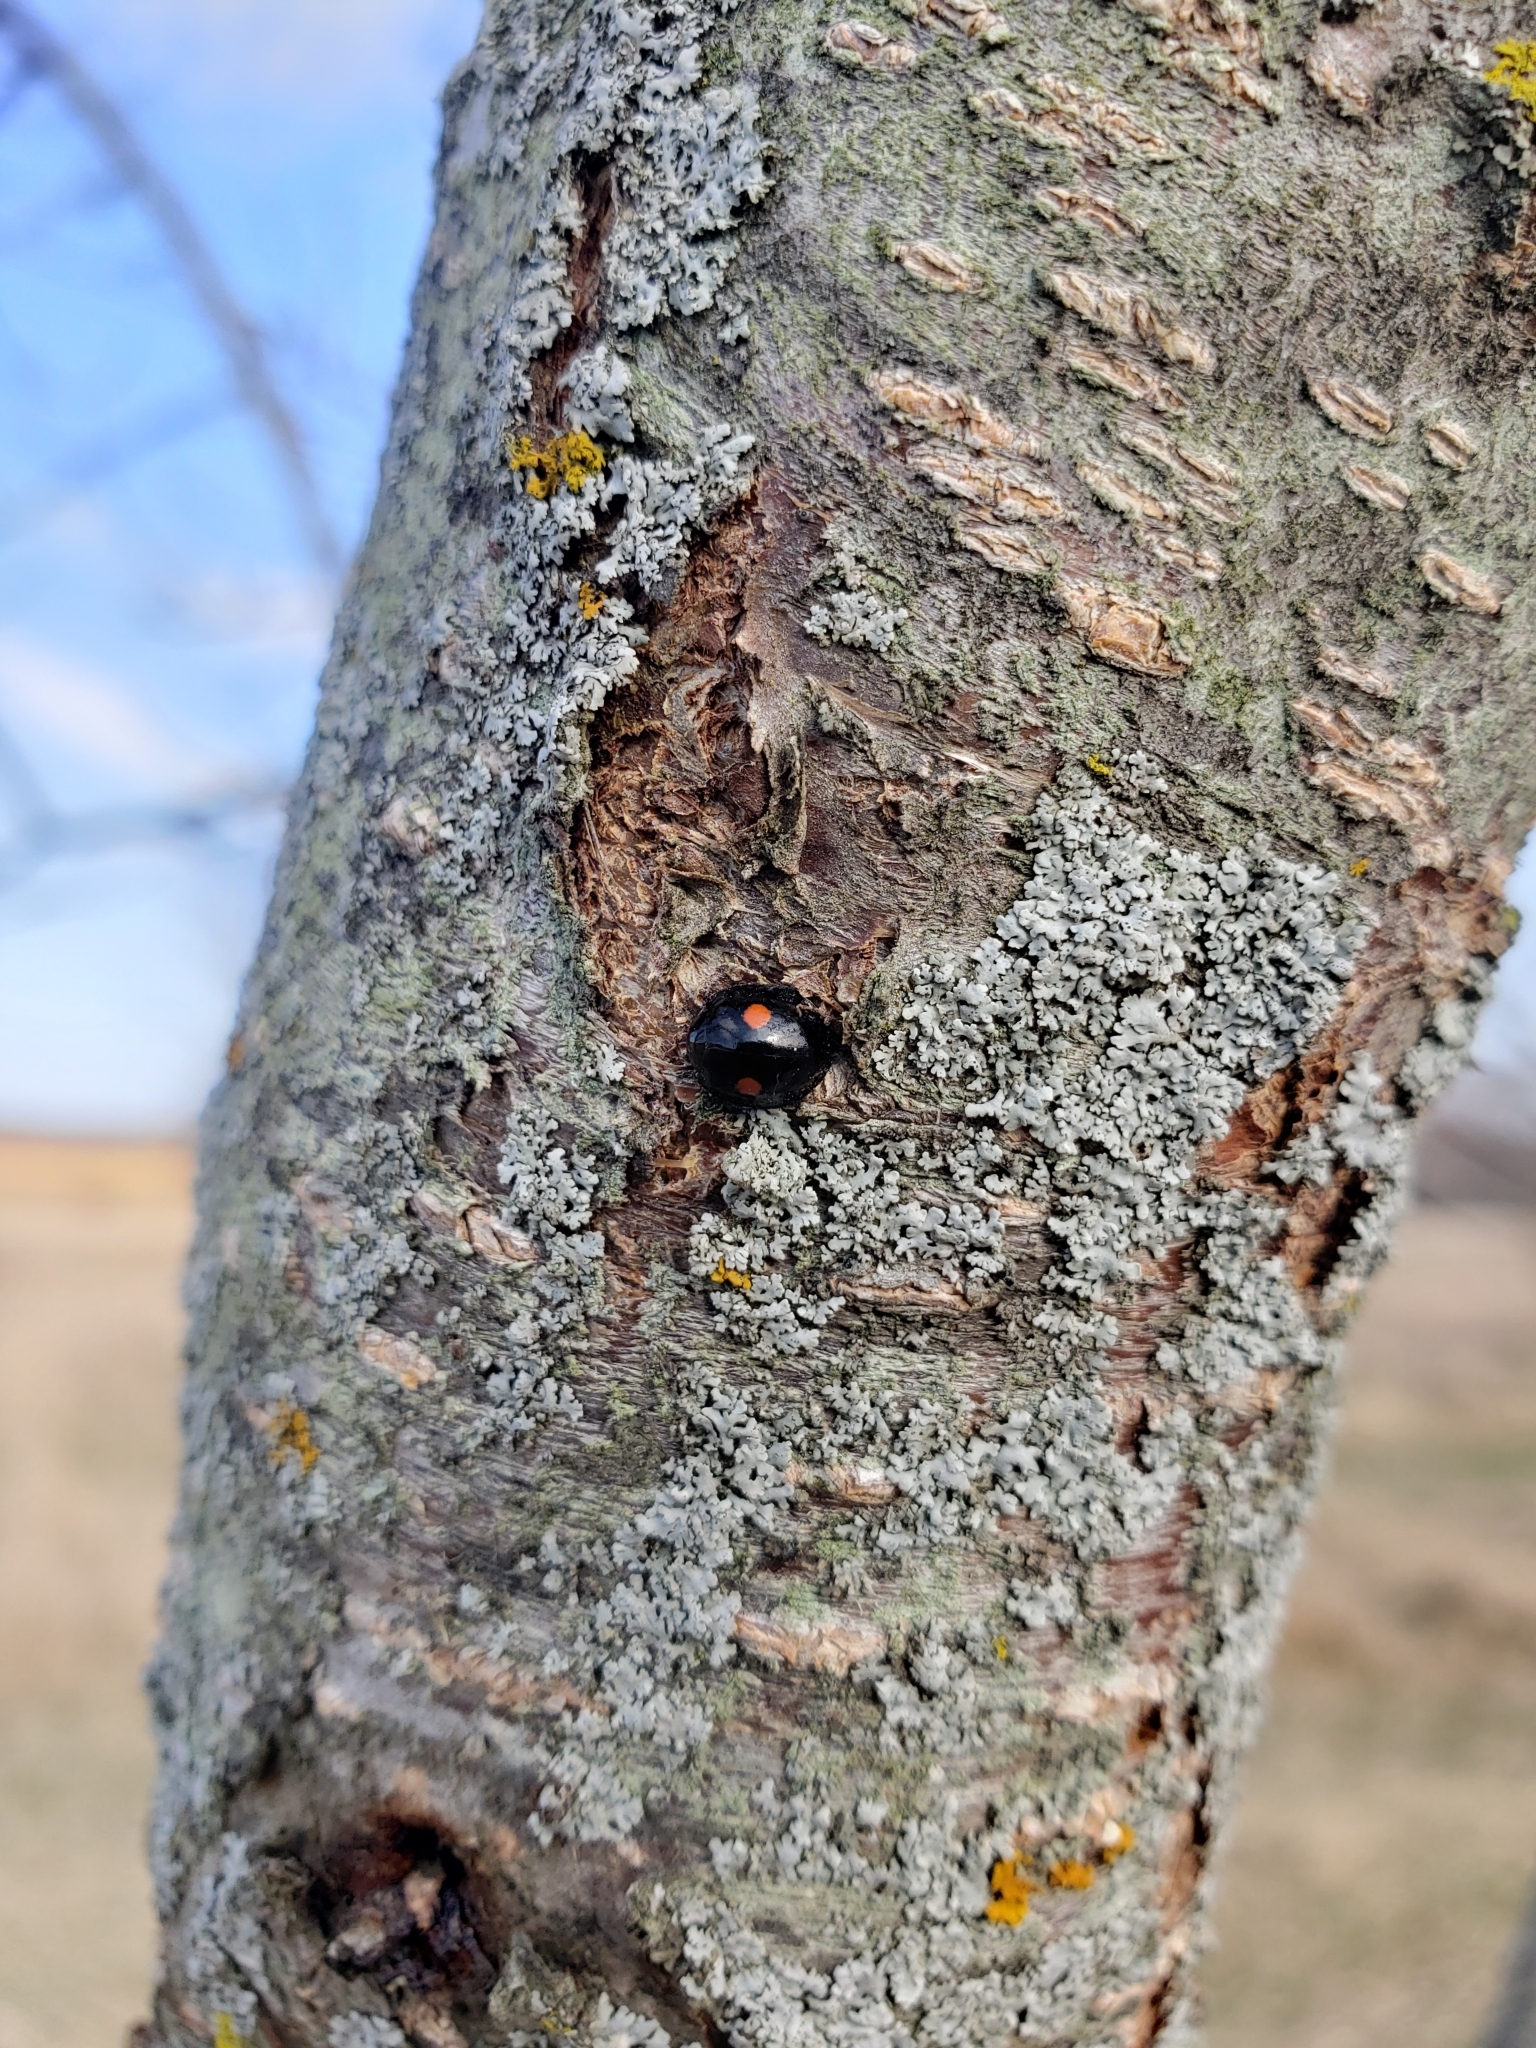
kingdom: Animalia
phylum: Arthropoda
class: Insecta
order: Coleoptera
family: Coccinellidae
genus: Chilocorus
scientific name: Chilocorus stigma
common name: Twicestabbed lady beetle
